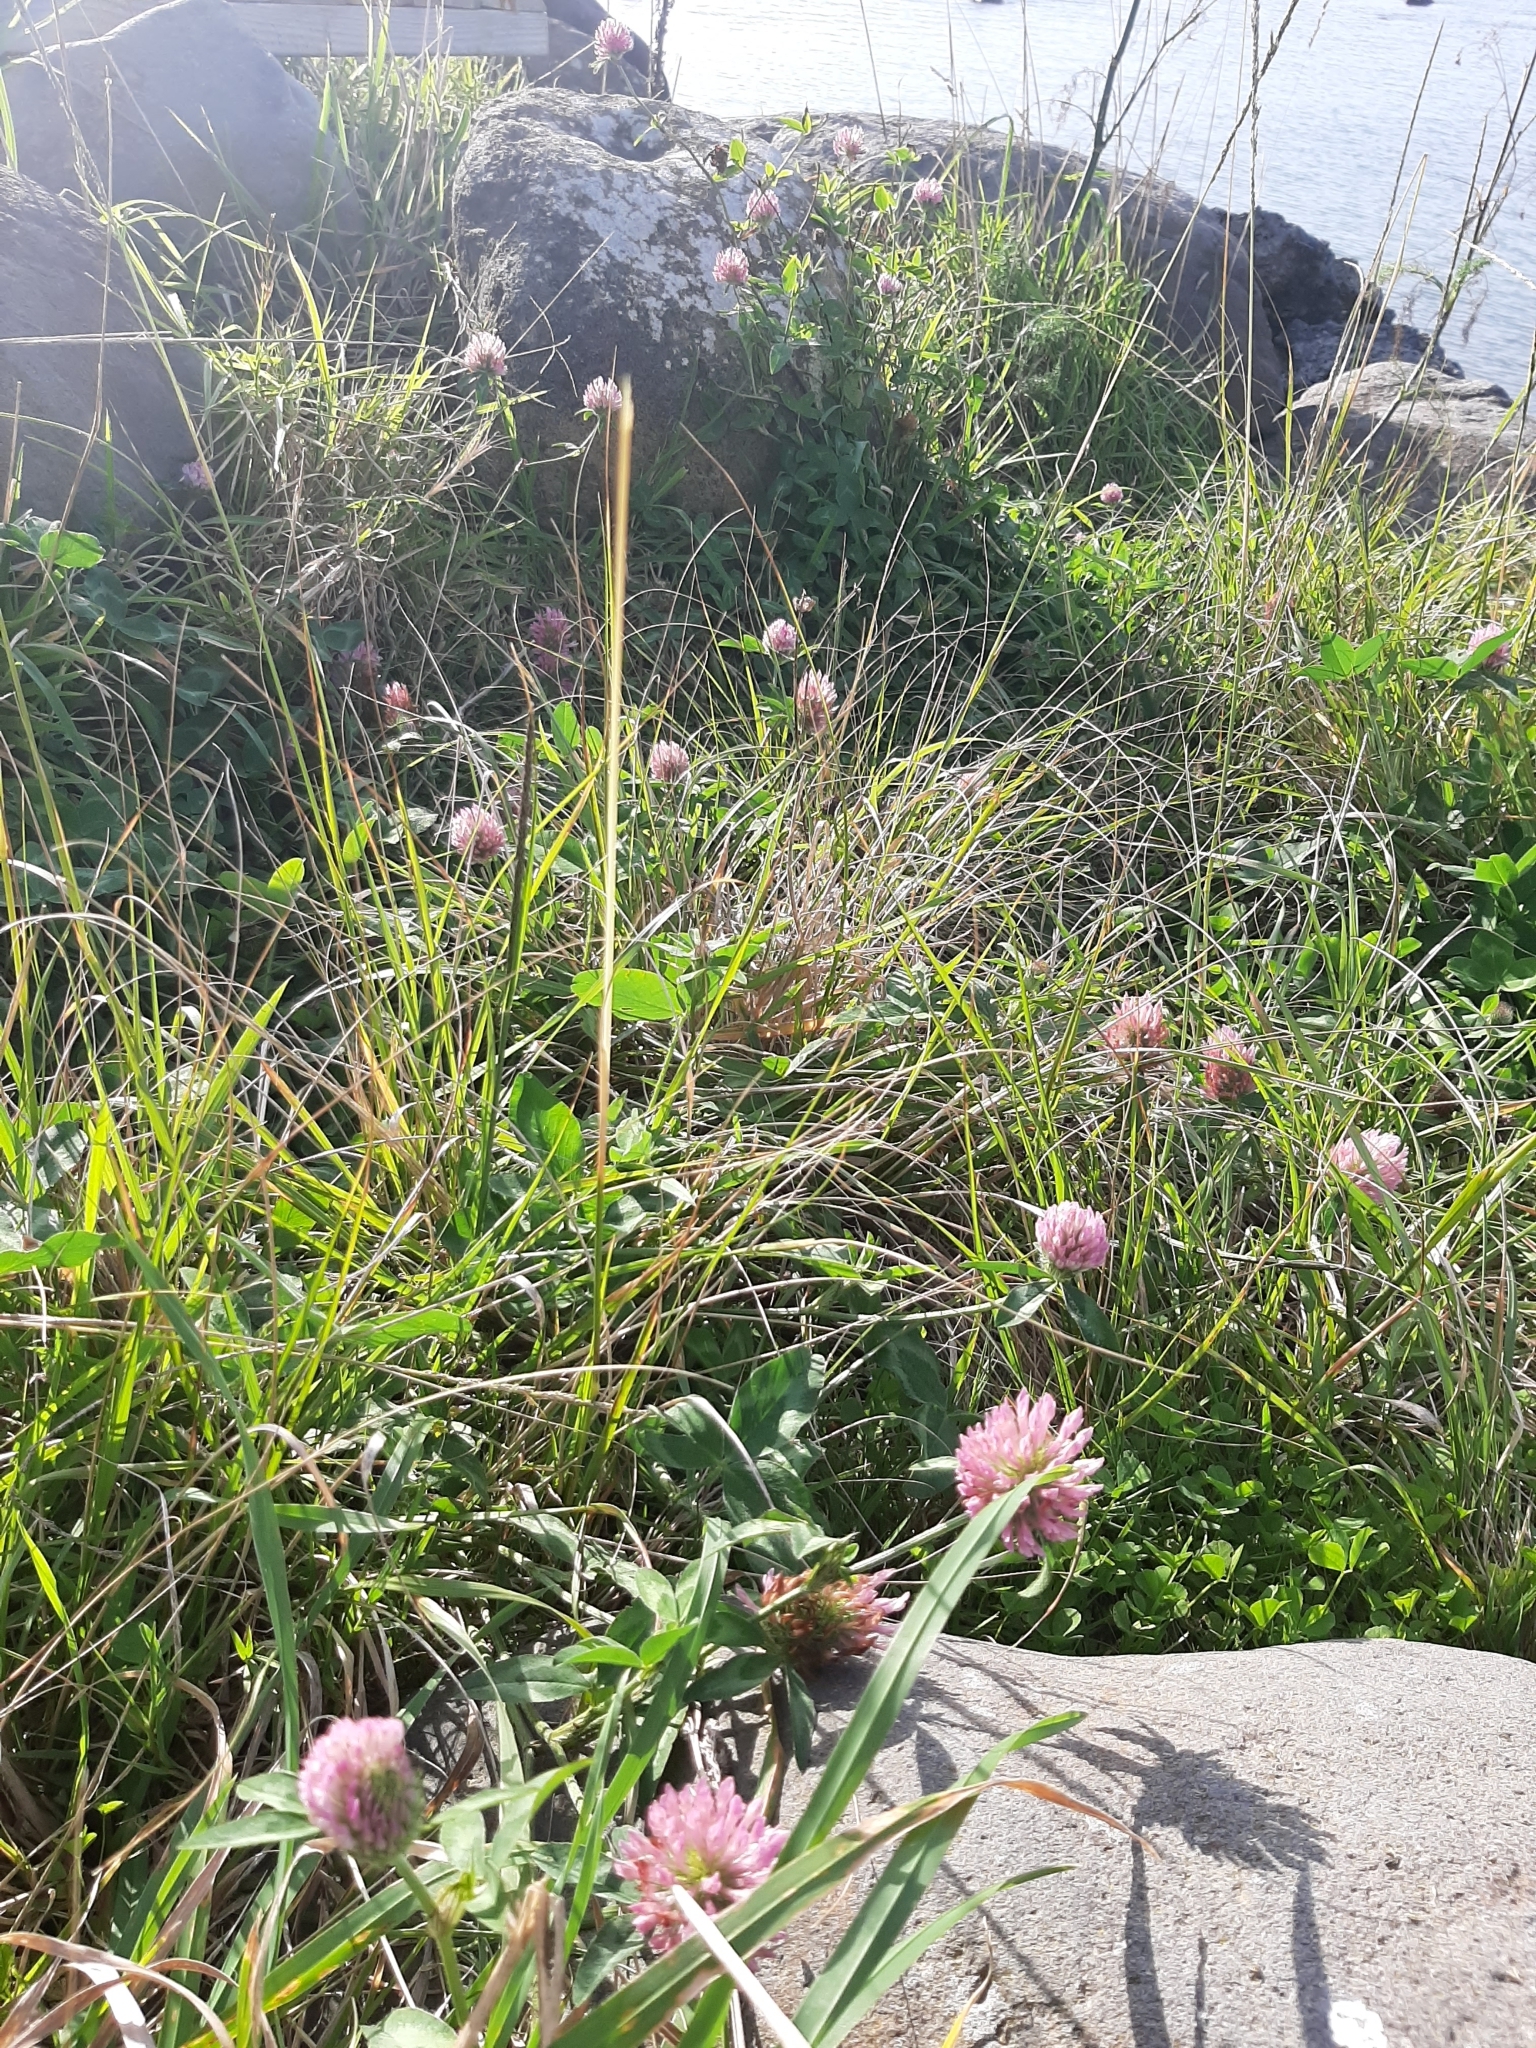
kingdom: Plantae
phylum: Tracheophyta
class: Magnoliopsida
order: Fabales
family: Fabaceae
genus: Trifolium
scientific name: Trifolium pratense
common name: Red clover
